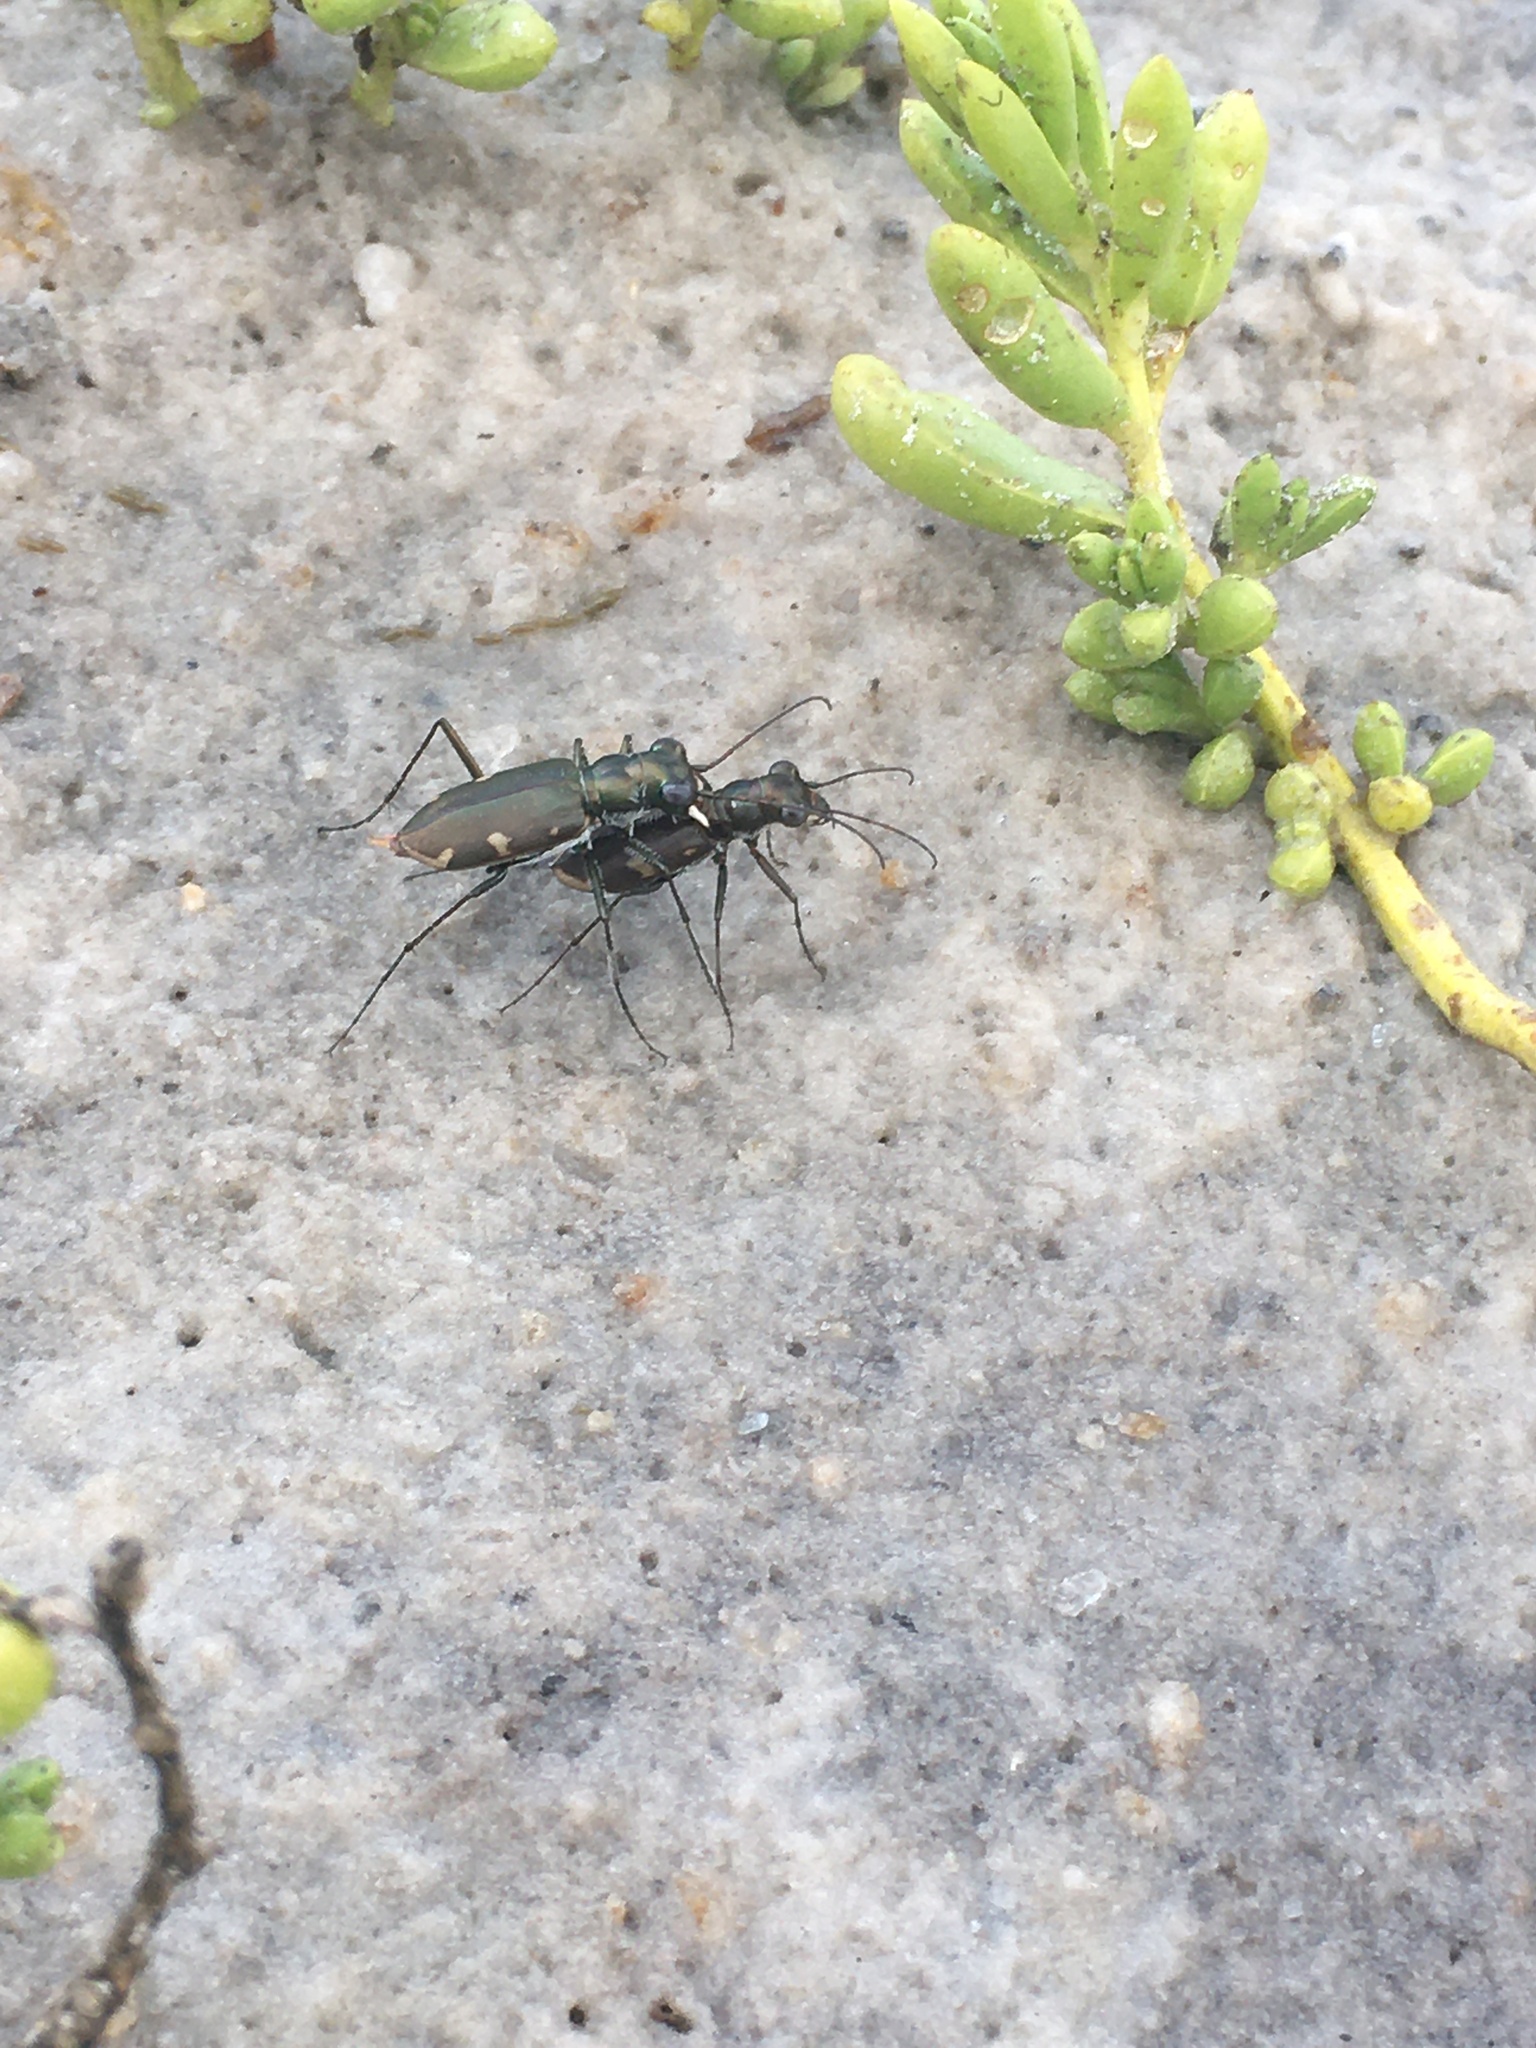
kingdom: Animalia
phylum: Arthropoda
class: Insecta
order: Coleoptera
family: Carabidae
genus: Eunota
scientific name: Eunota severa
